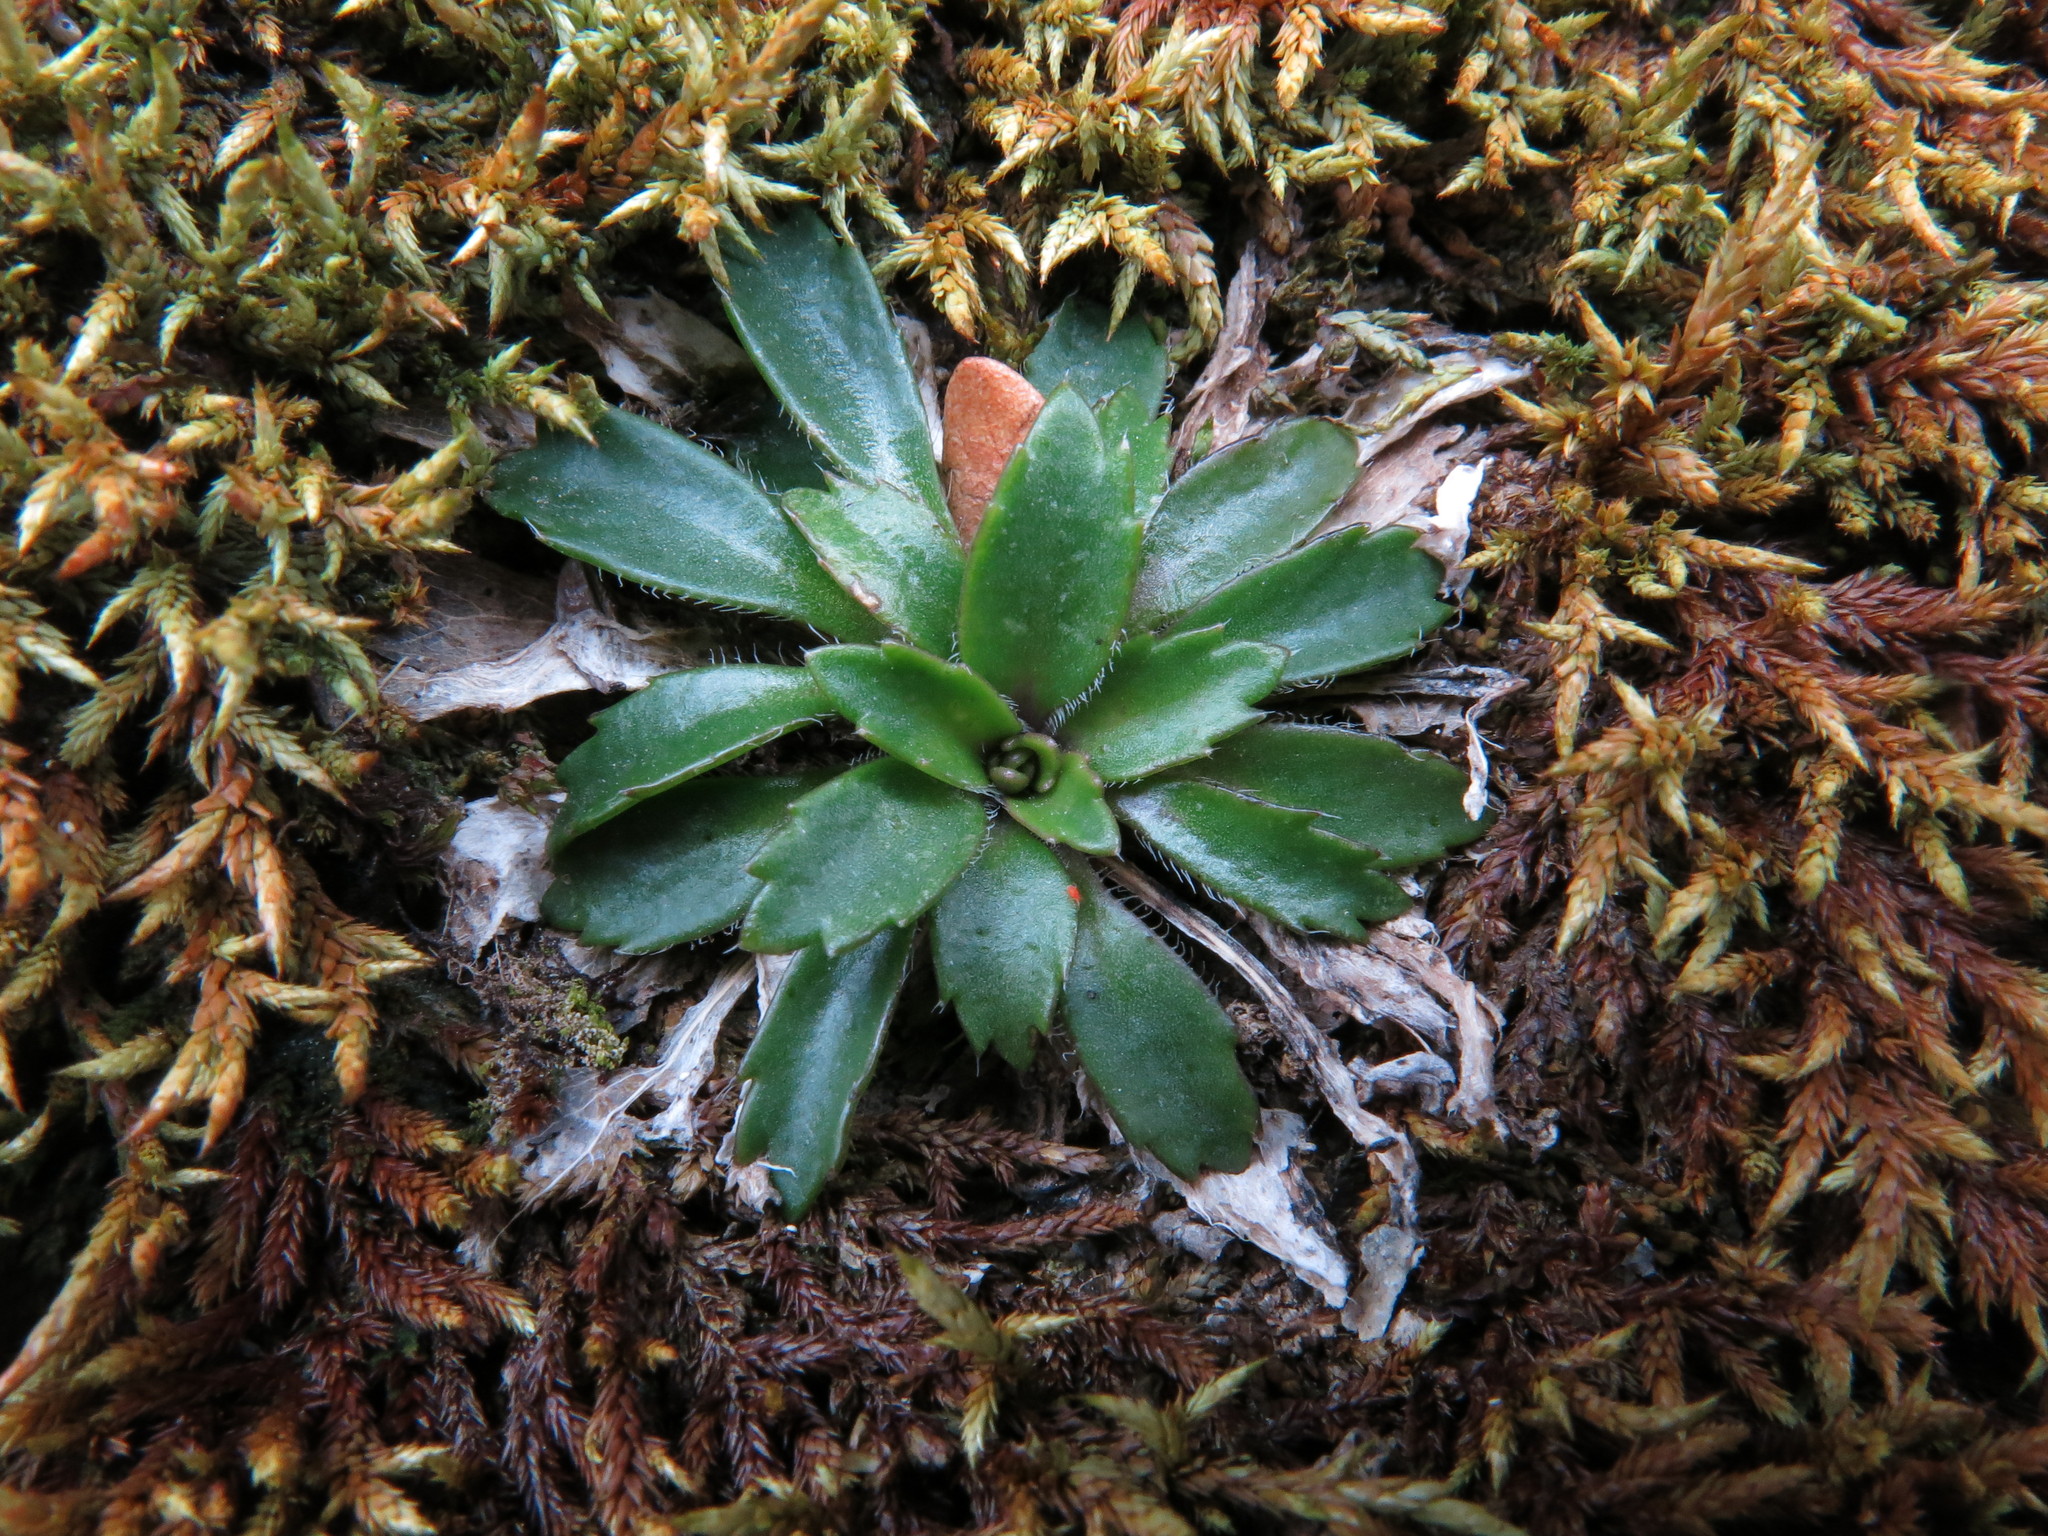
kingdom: Plantae
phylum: Tracheophyta
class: Magnoliopsida
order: Brassicales
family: Brassicaceae
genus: Pachycladon
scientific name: Pachycladon fastigiatum
